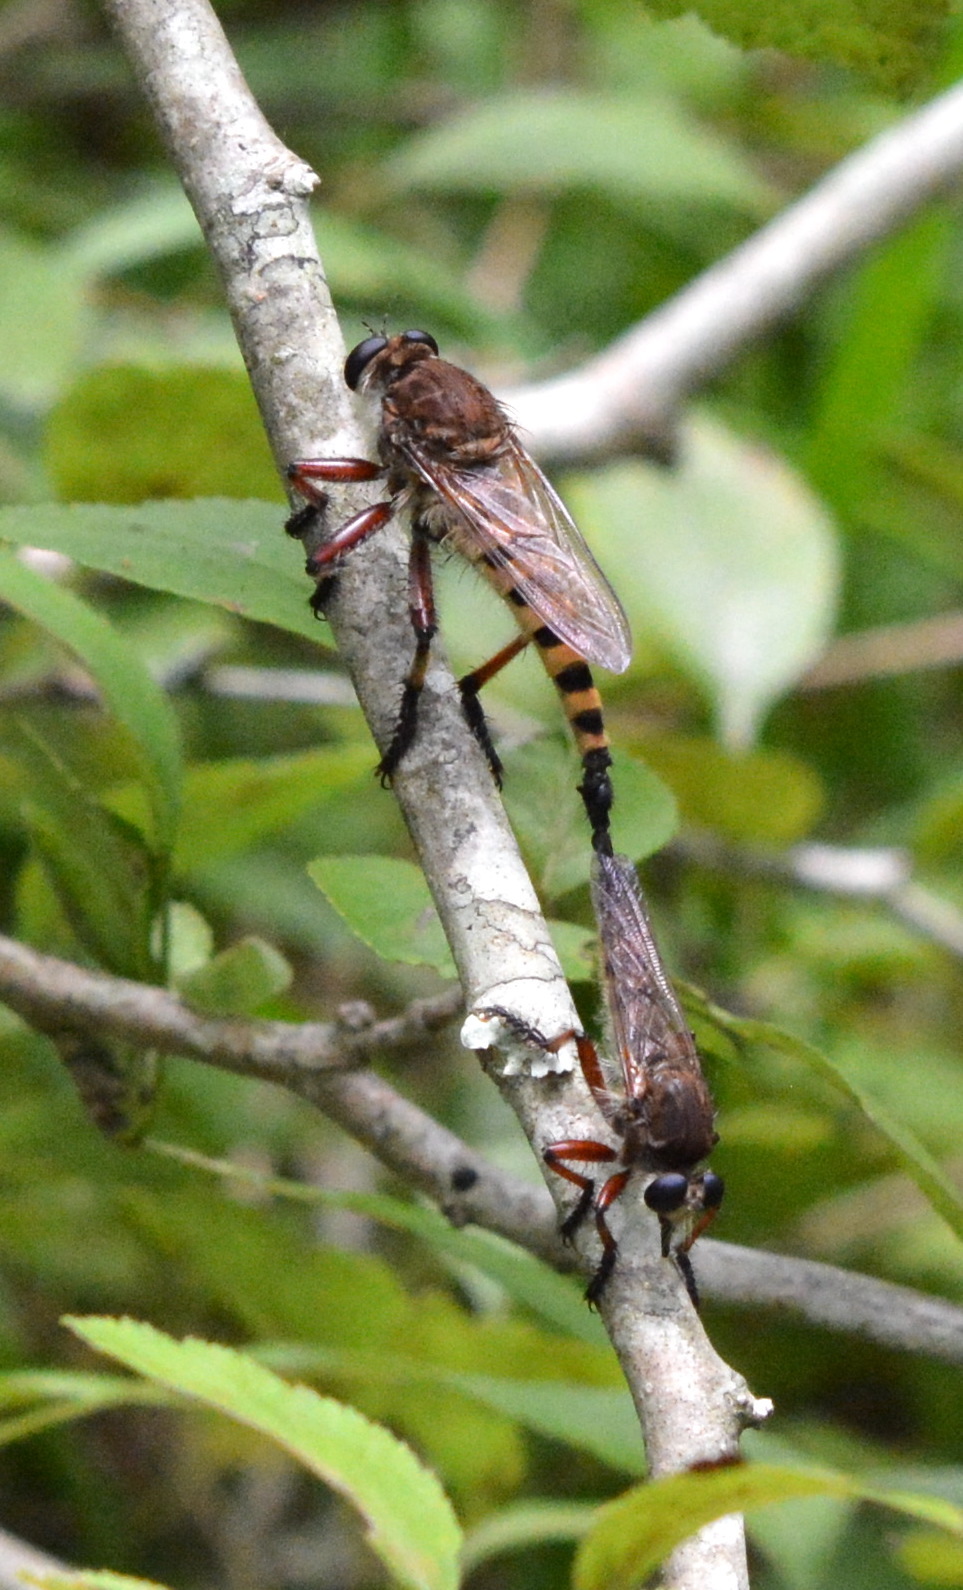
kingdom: Animalia
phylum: Arthropoda
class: Insecta
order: Diptera
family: Asilidae
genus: Promachus
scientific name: Promachus hinei
